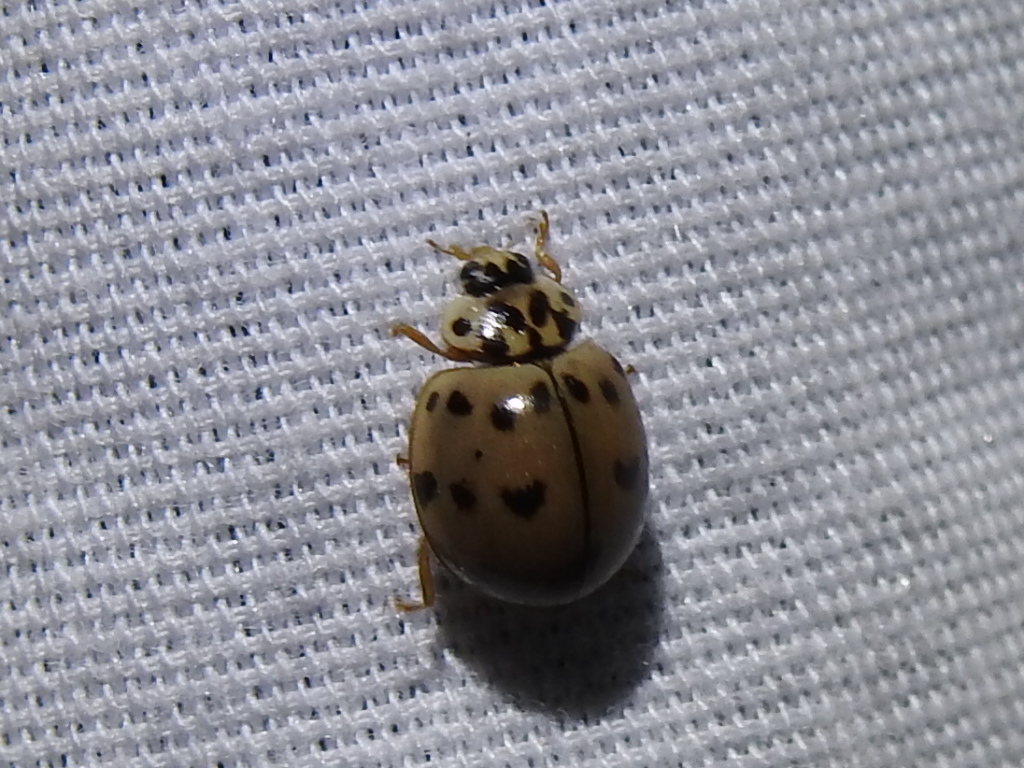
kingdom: Animalia
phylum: Arthropoda
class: Insecta
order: Coleoptera
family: Coccinellidae
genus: Olla
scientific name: Olla v-nigrum
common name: Ashy gray lady beetle
